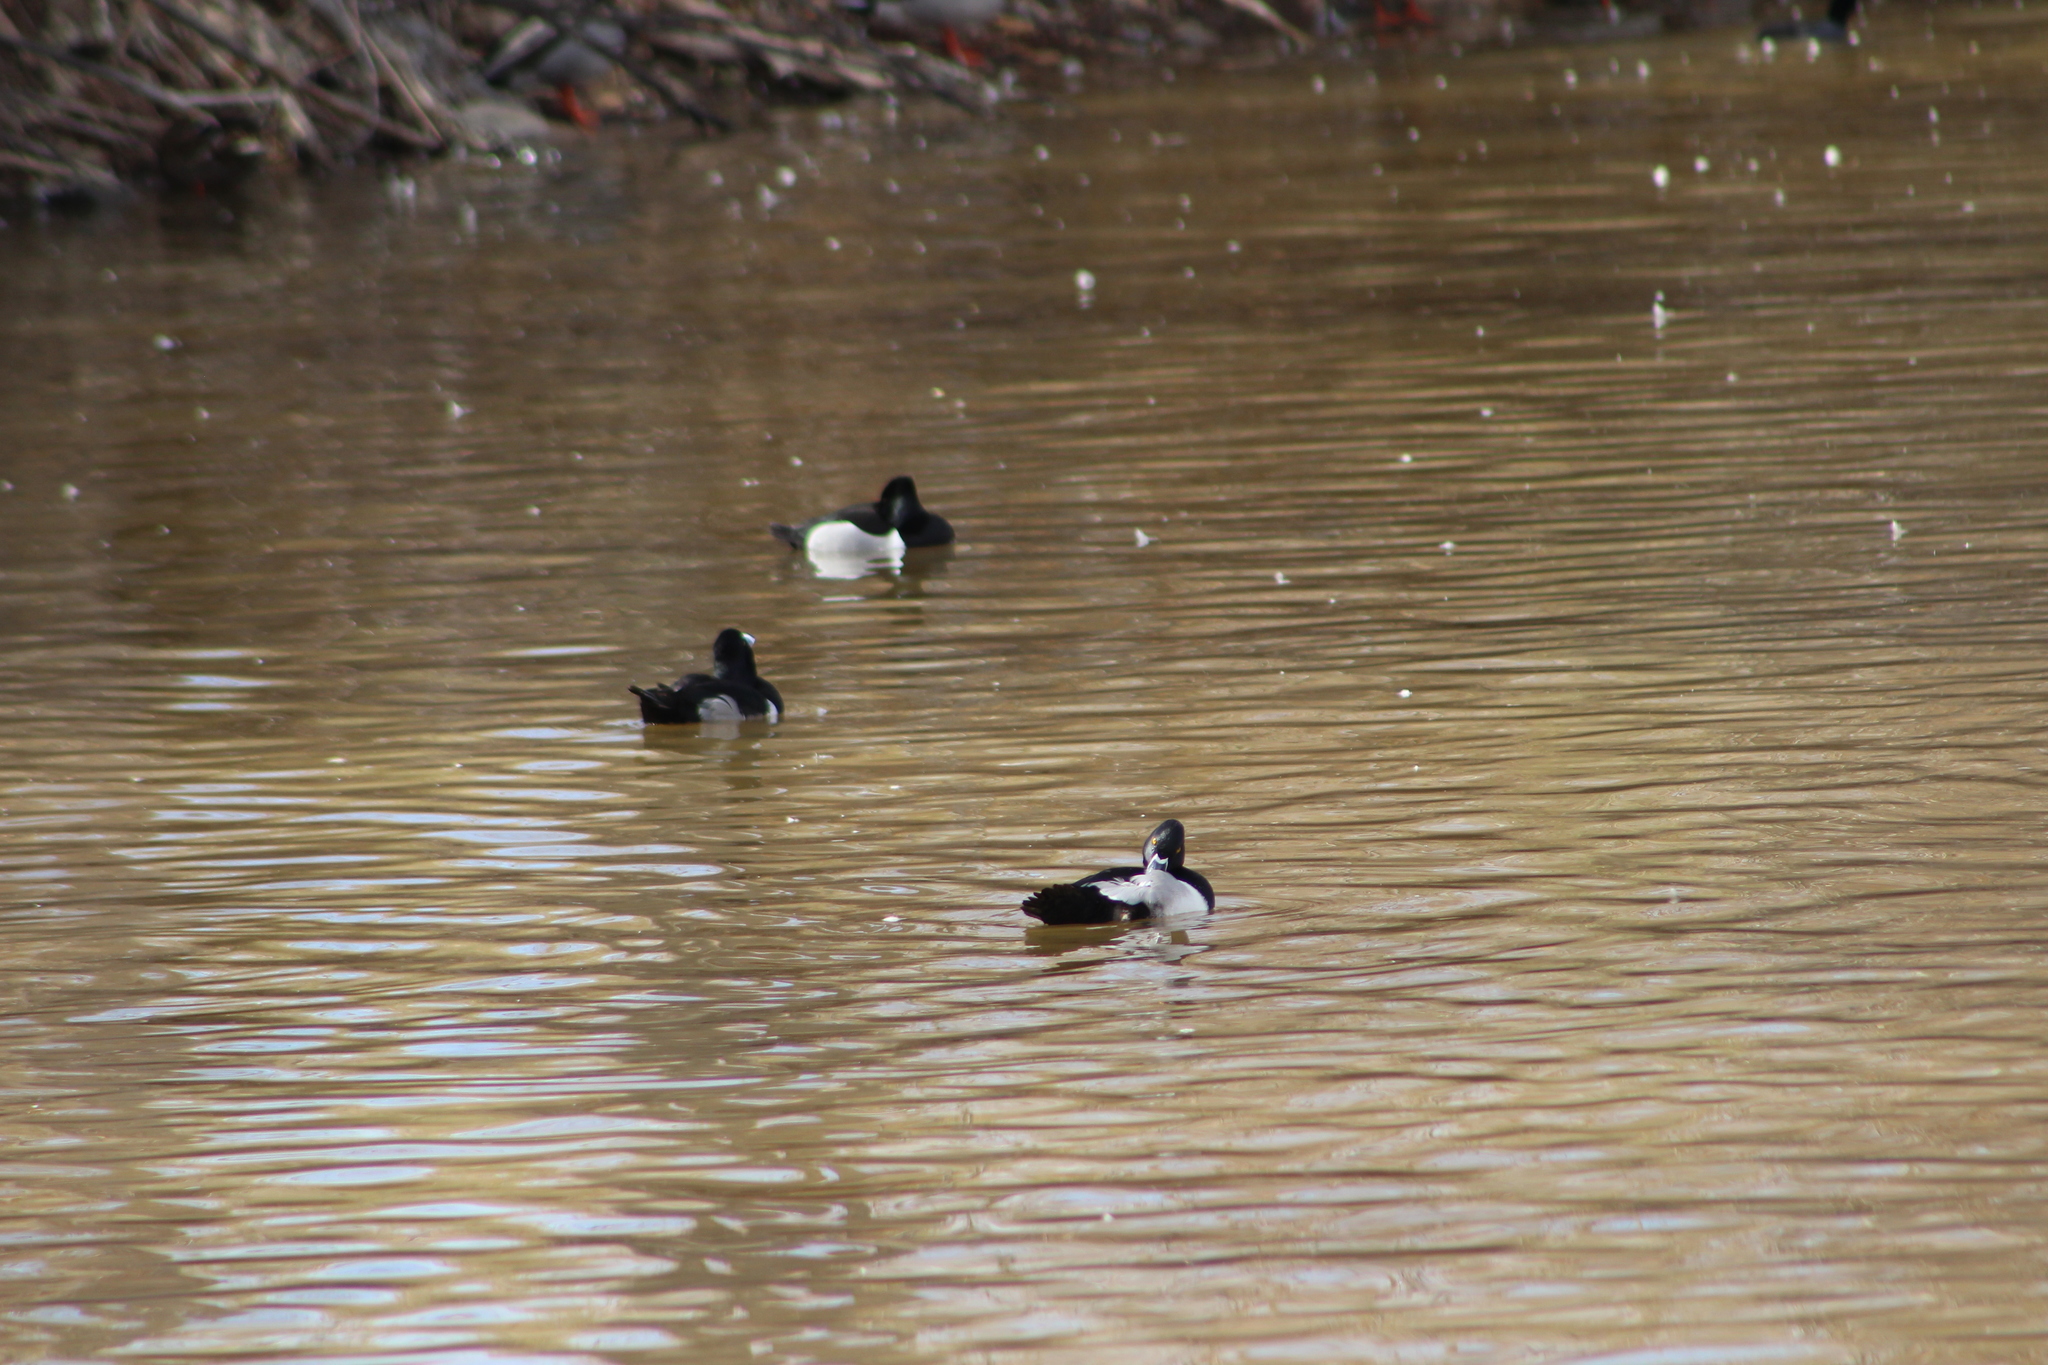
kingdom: Animalia
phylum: Chordata
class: Aves
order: Anseriformes
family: Anatidae
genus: Aythya
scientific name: Aythya collaris
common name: Ring-necked duck
